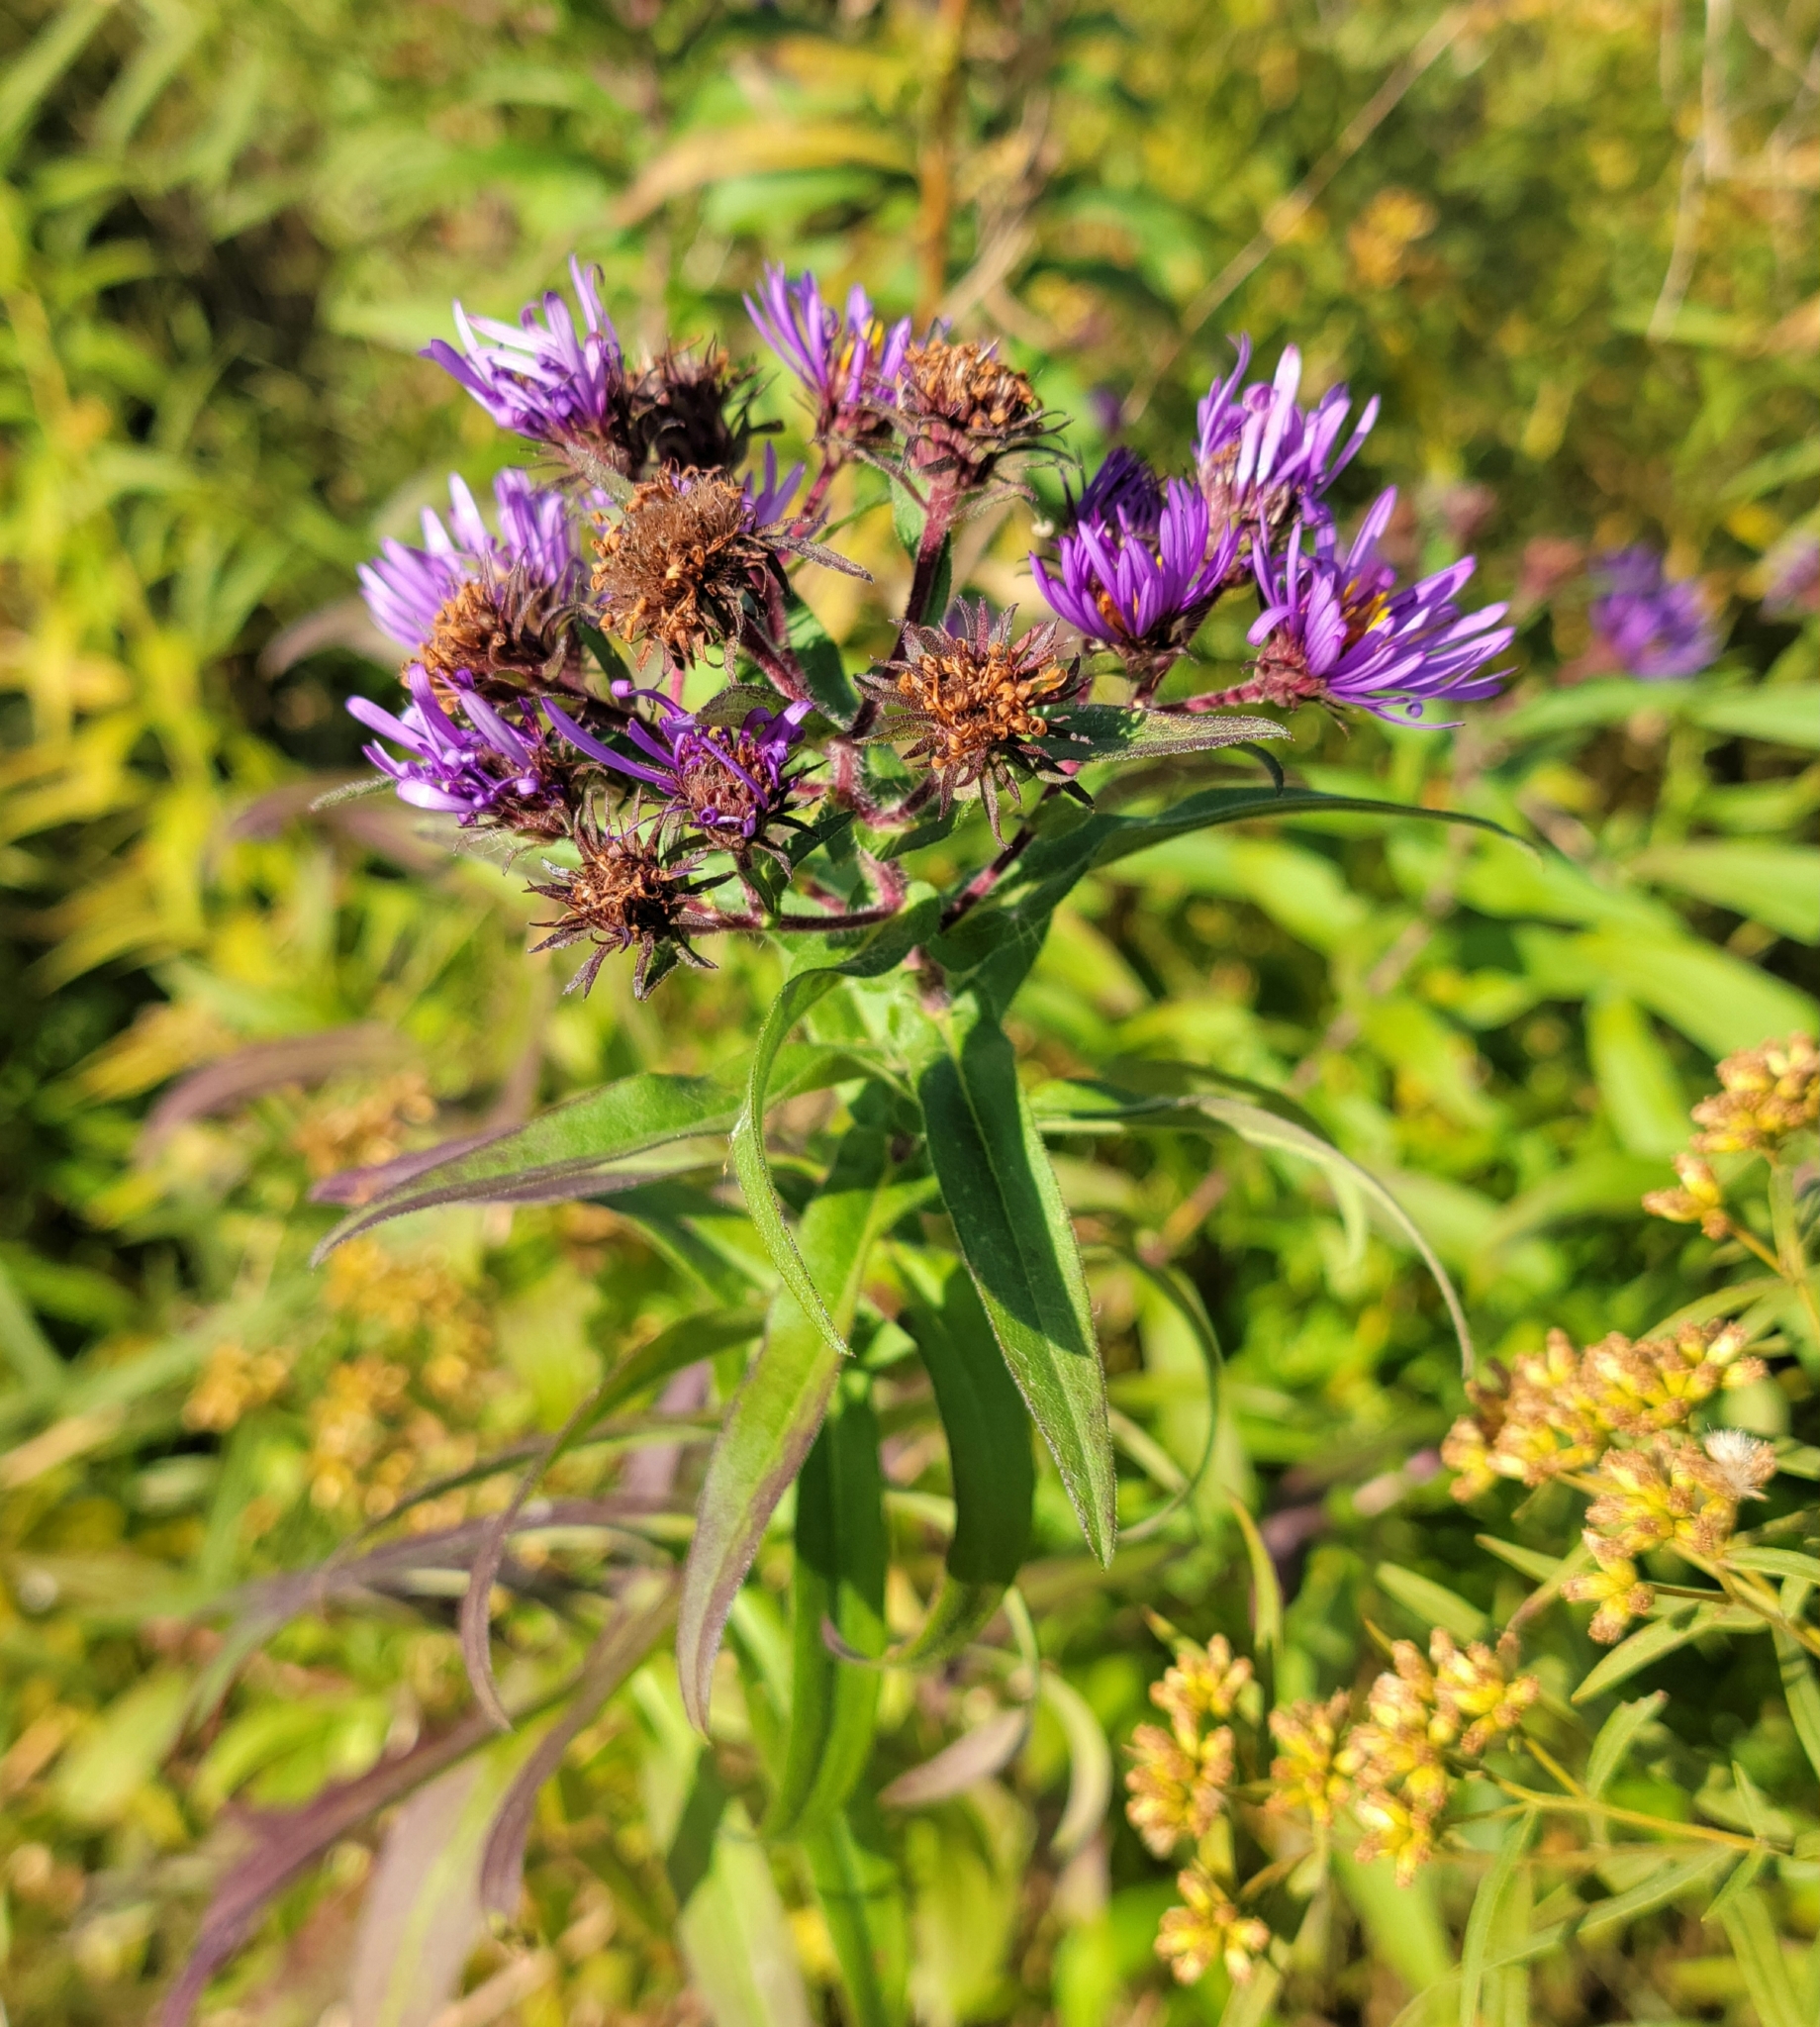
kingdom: Plantae
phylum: Tracheophyta
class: Magnoliopsida
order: Asterales
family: Asteraceae
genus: Symphyotrichum
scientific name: Symphyotrichum novae-angliae
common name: Michaelmas daisy
